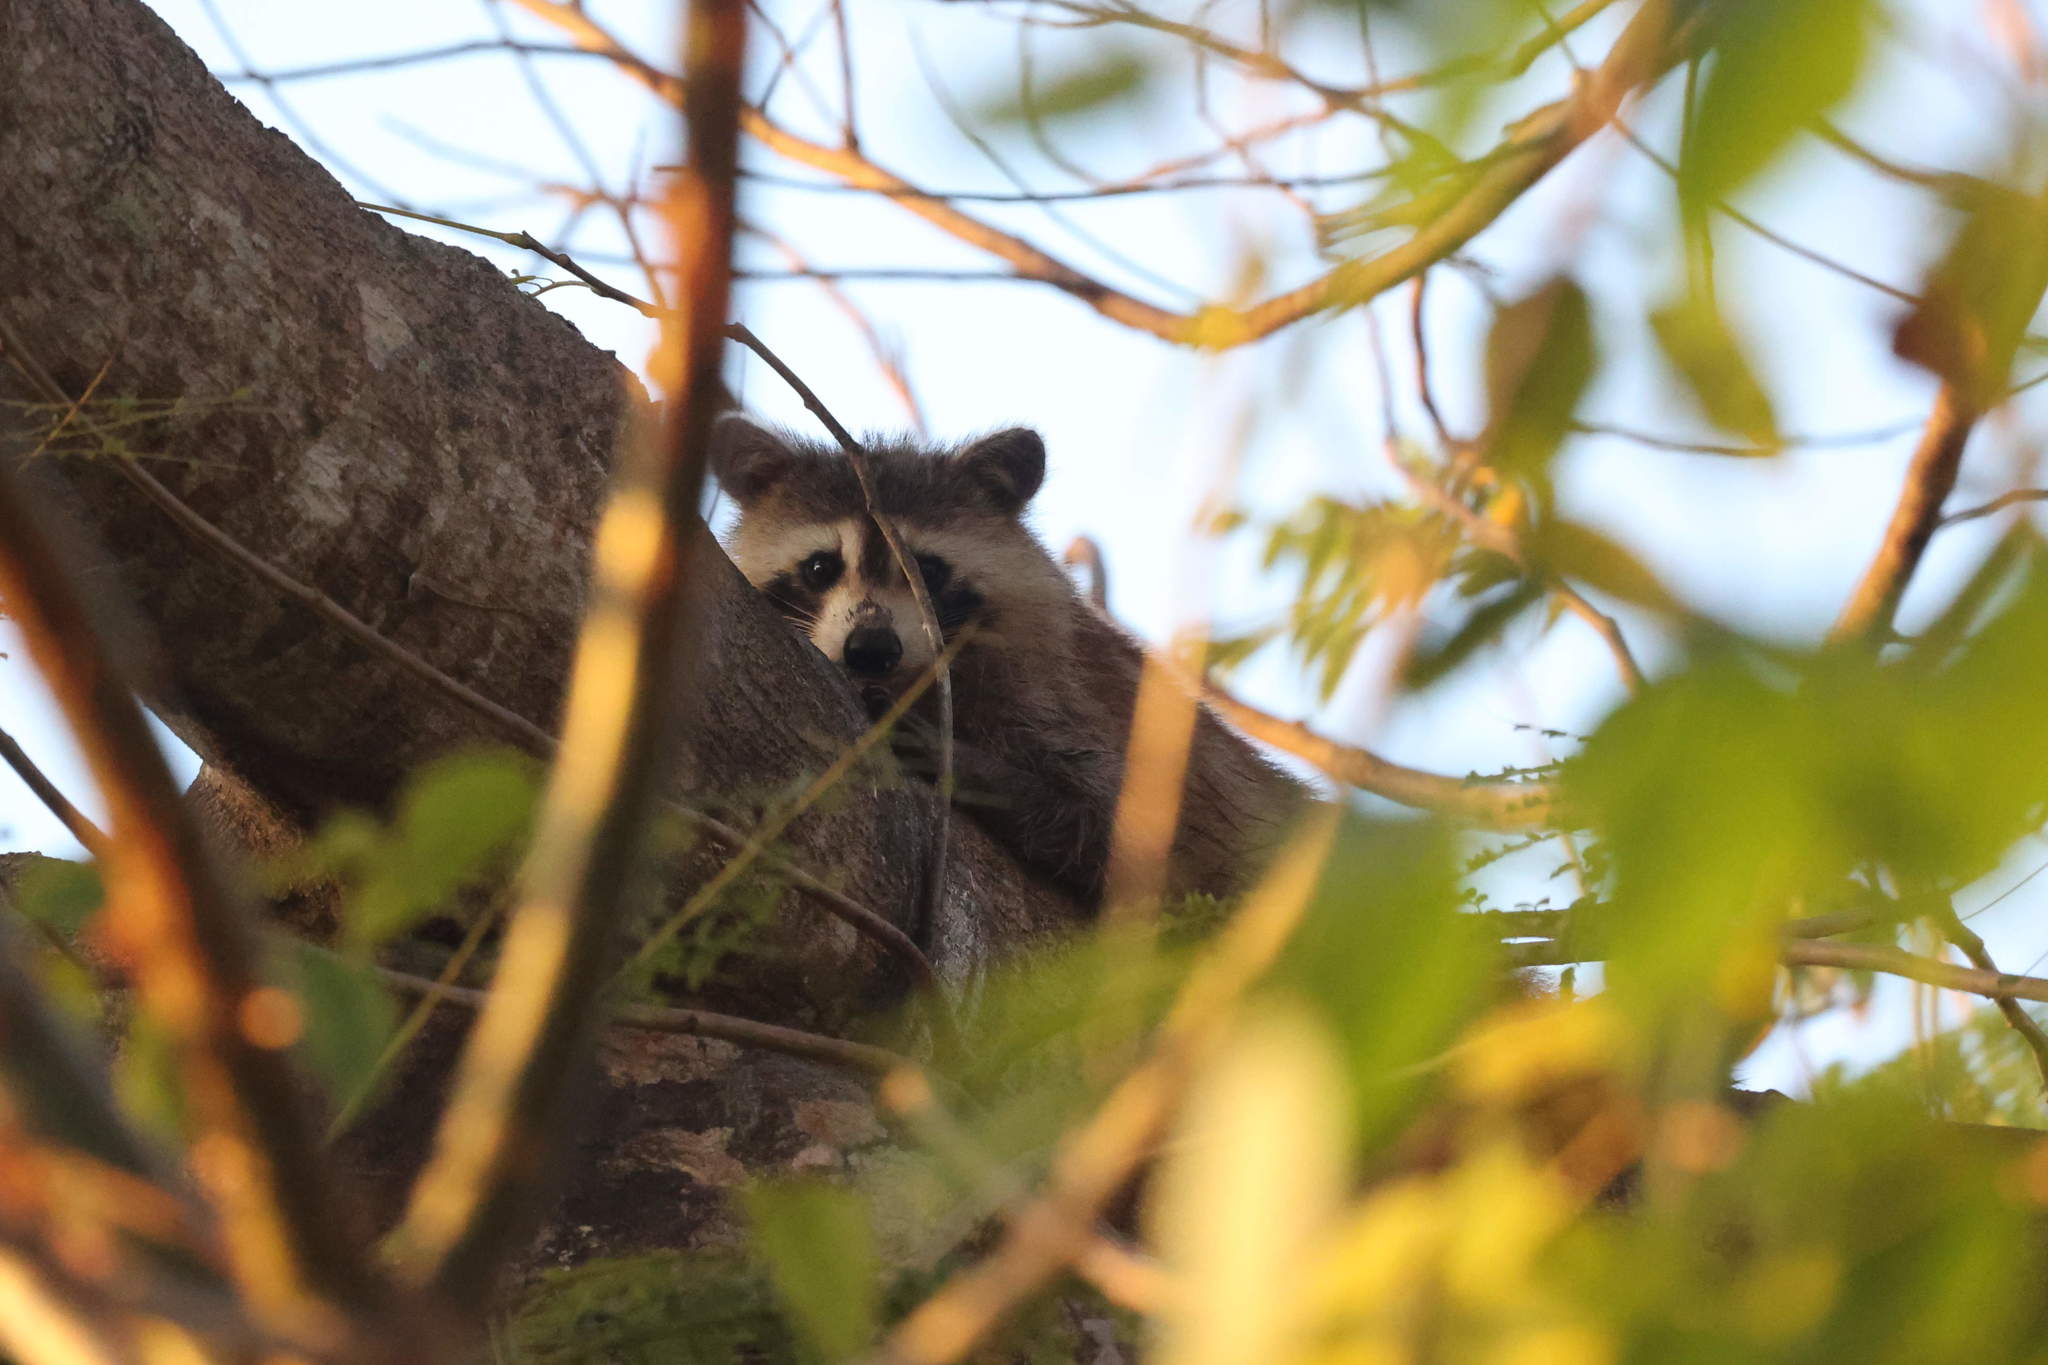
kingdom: Animalia
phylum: Chordata
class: Mammalia
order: Carnivora
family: Procyonidae
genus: Procyon
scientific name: Procyon lotor
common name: Raccoon
